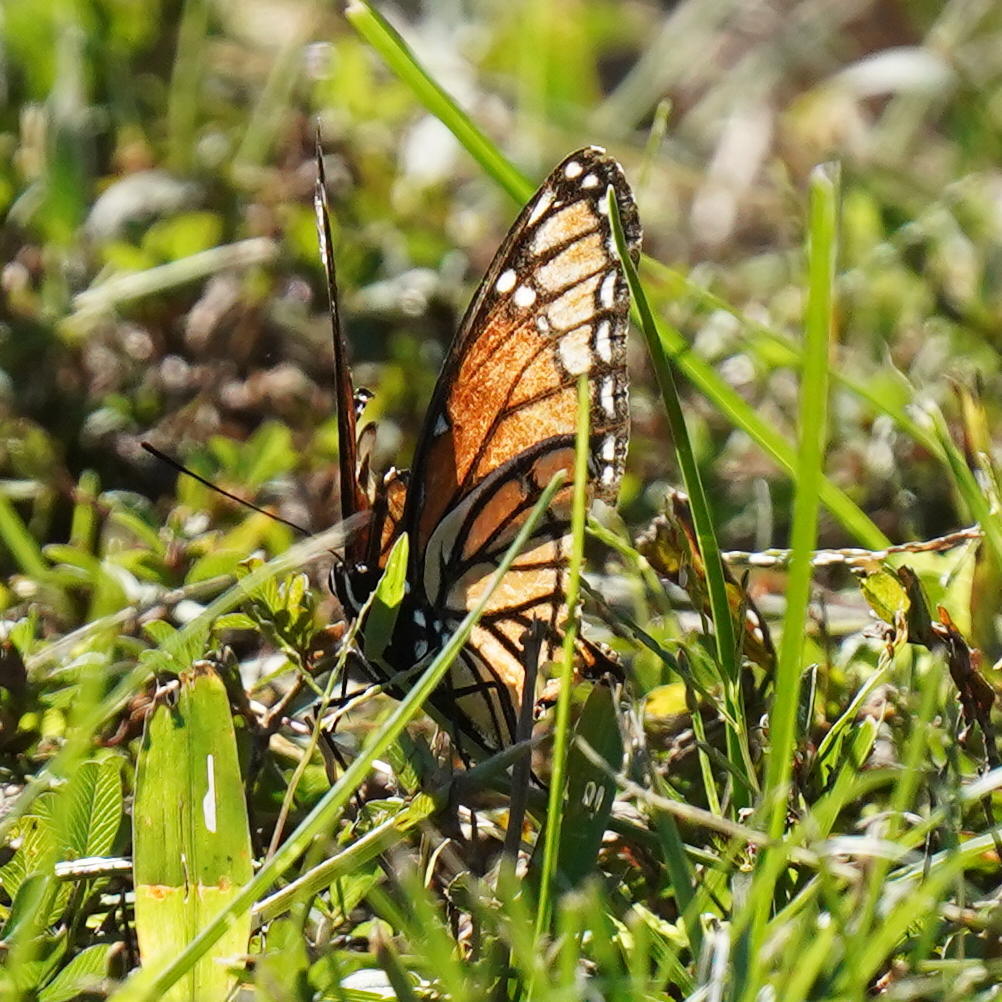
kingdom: Animalia
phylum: Arthropoda
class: Insecta
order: Lepidoptera
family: Nymphalidae
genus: Limenitis
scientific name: Limenitis archippus
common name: Viceroy
